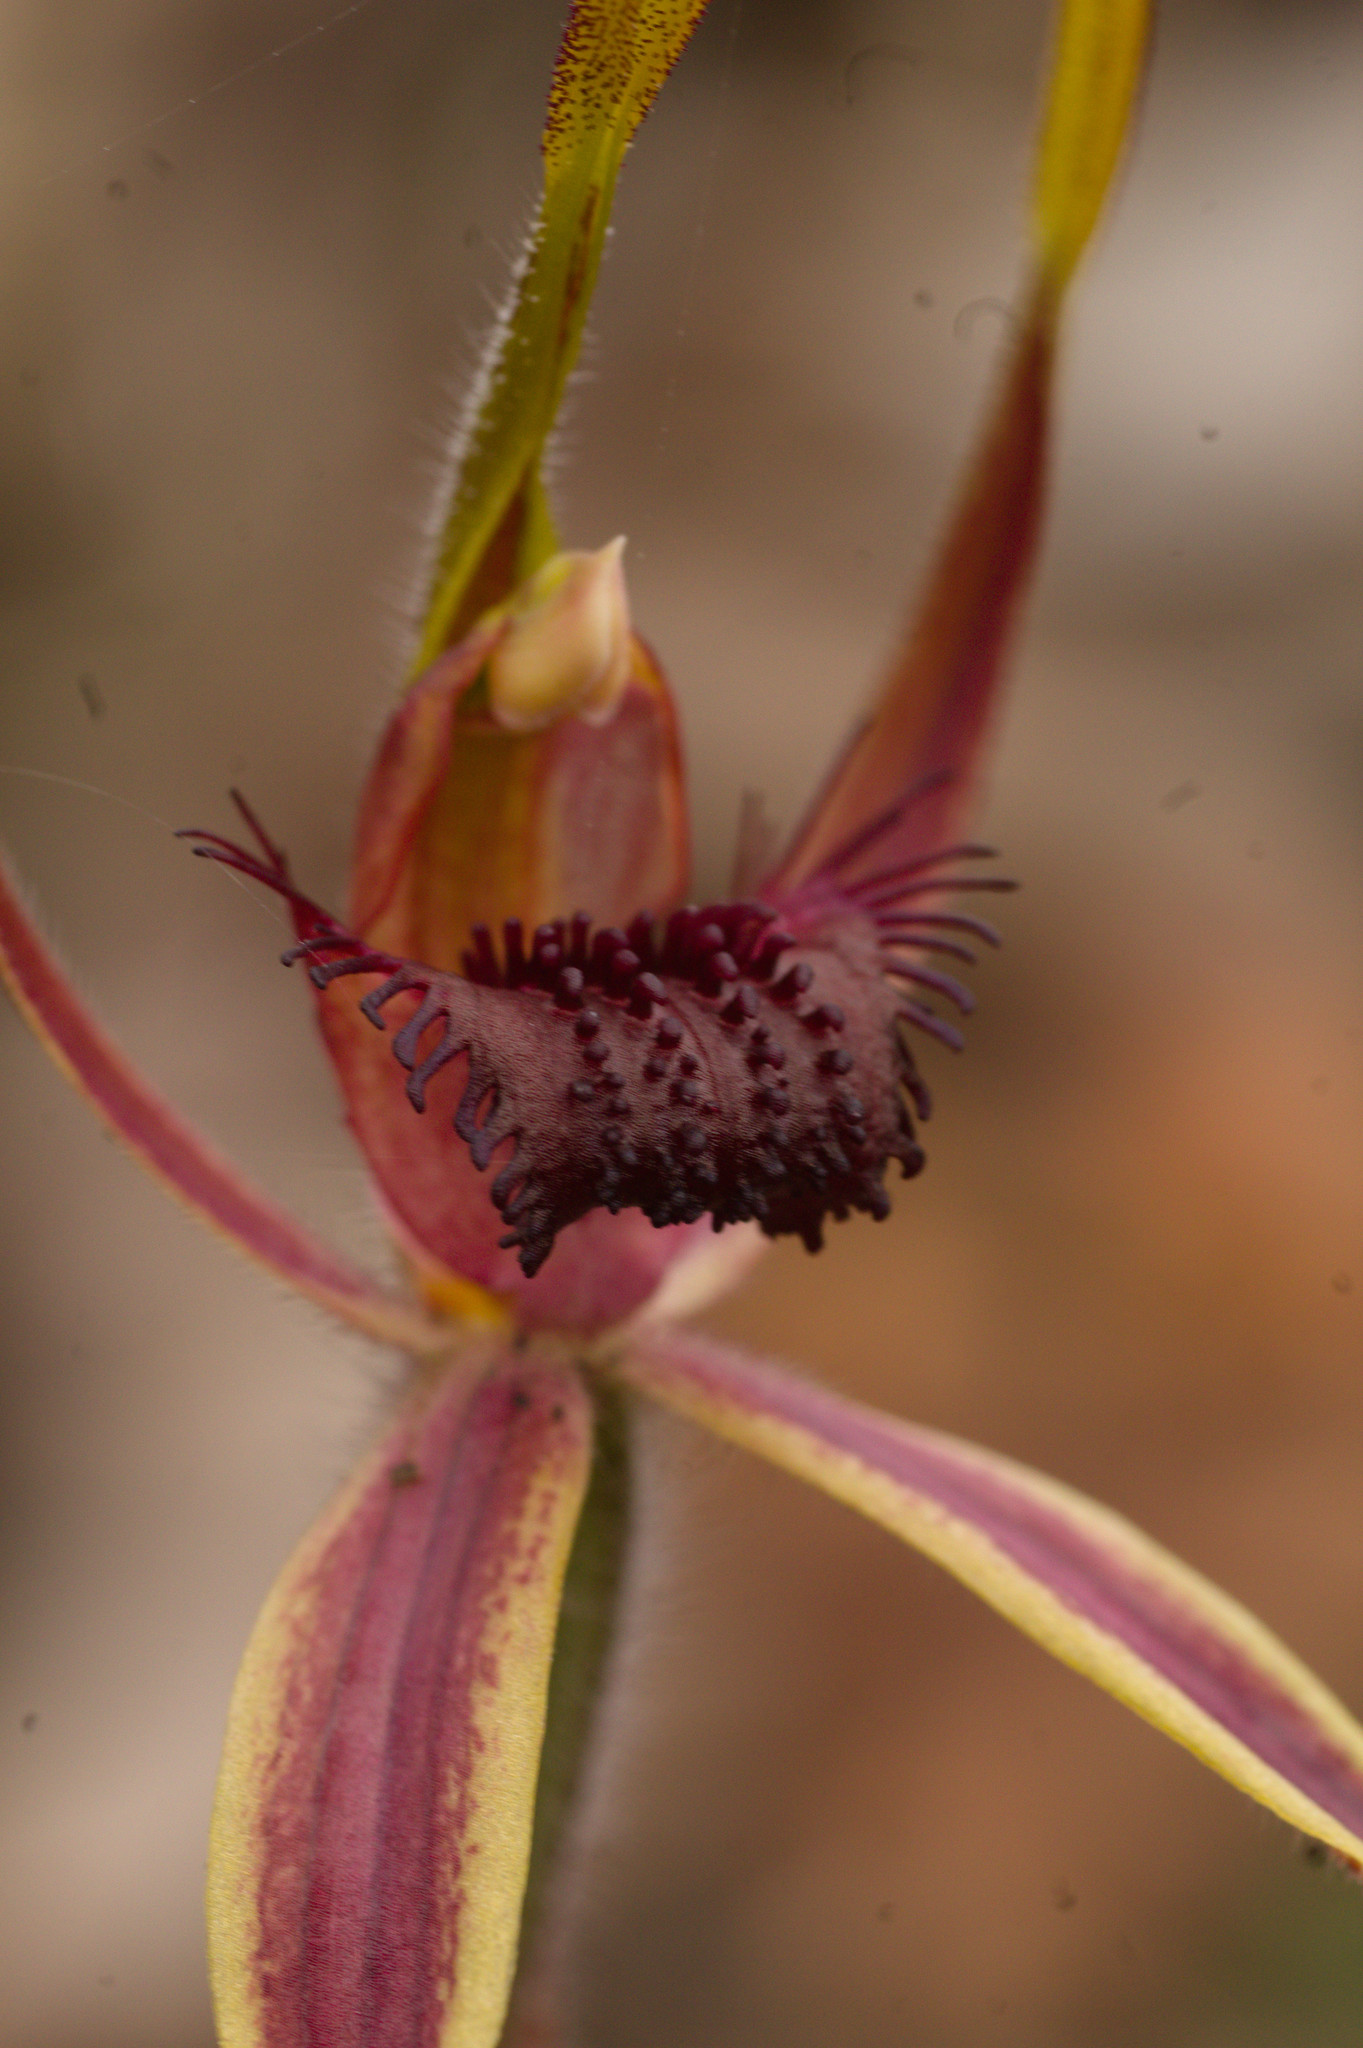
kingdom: Plantae
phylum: Tracheophyta
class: Liliopsida
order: Asparagales
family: Orchidaceae
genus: Caladenia
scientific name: Caladenia arrecta
